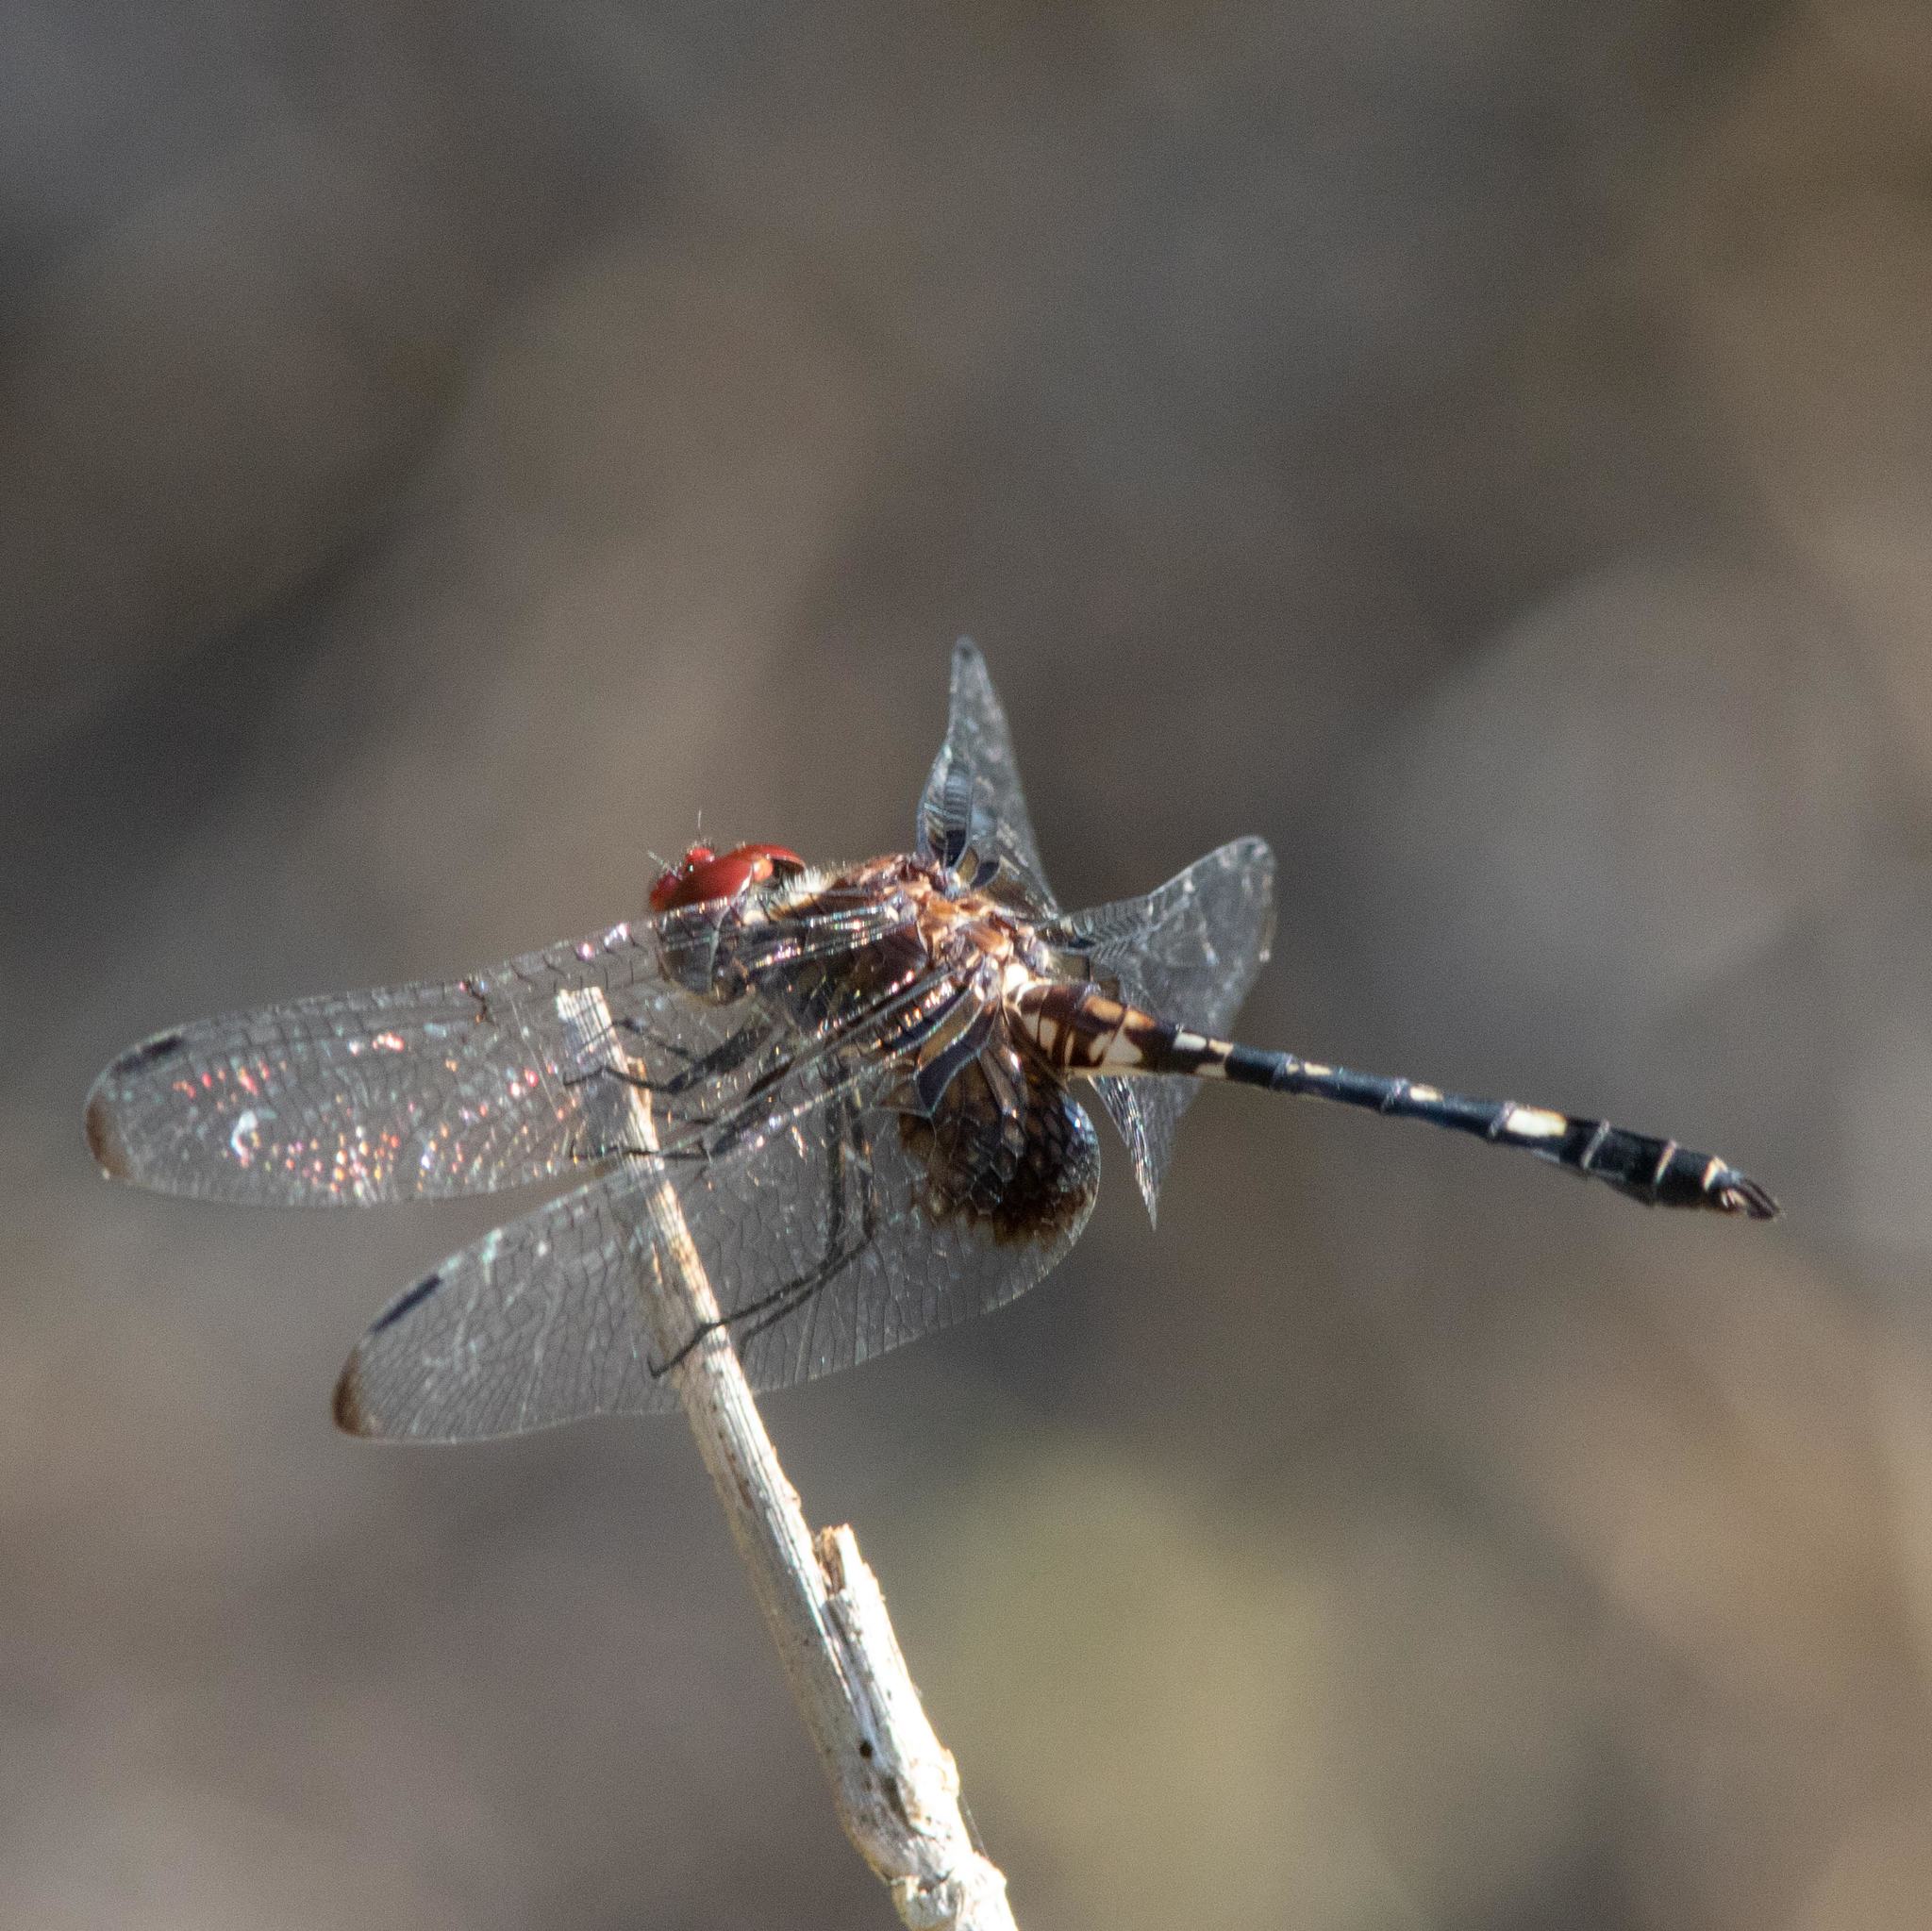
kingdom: Animalia
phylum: Arthropoda
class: Insecta
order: Odonata
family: Libellulidae
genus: Dythemis
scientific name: Dythemis fugax
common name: Checkered setwing
